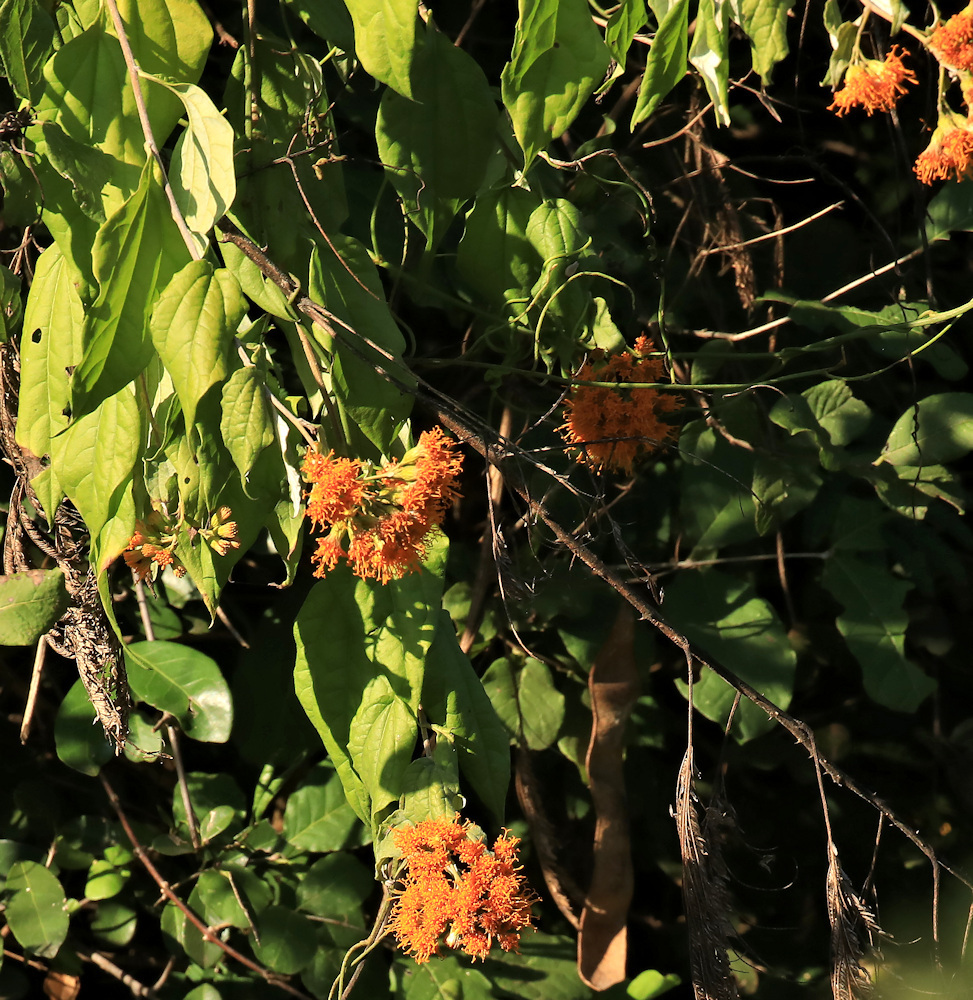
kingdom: Plantae
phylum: Tracheophyta
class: Magnoliopsida
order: Asterales
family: Asteraceae
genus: Distephanus
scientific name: Distephanus divaricatus
